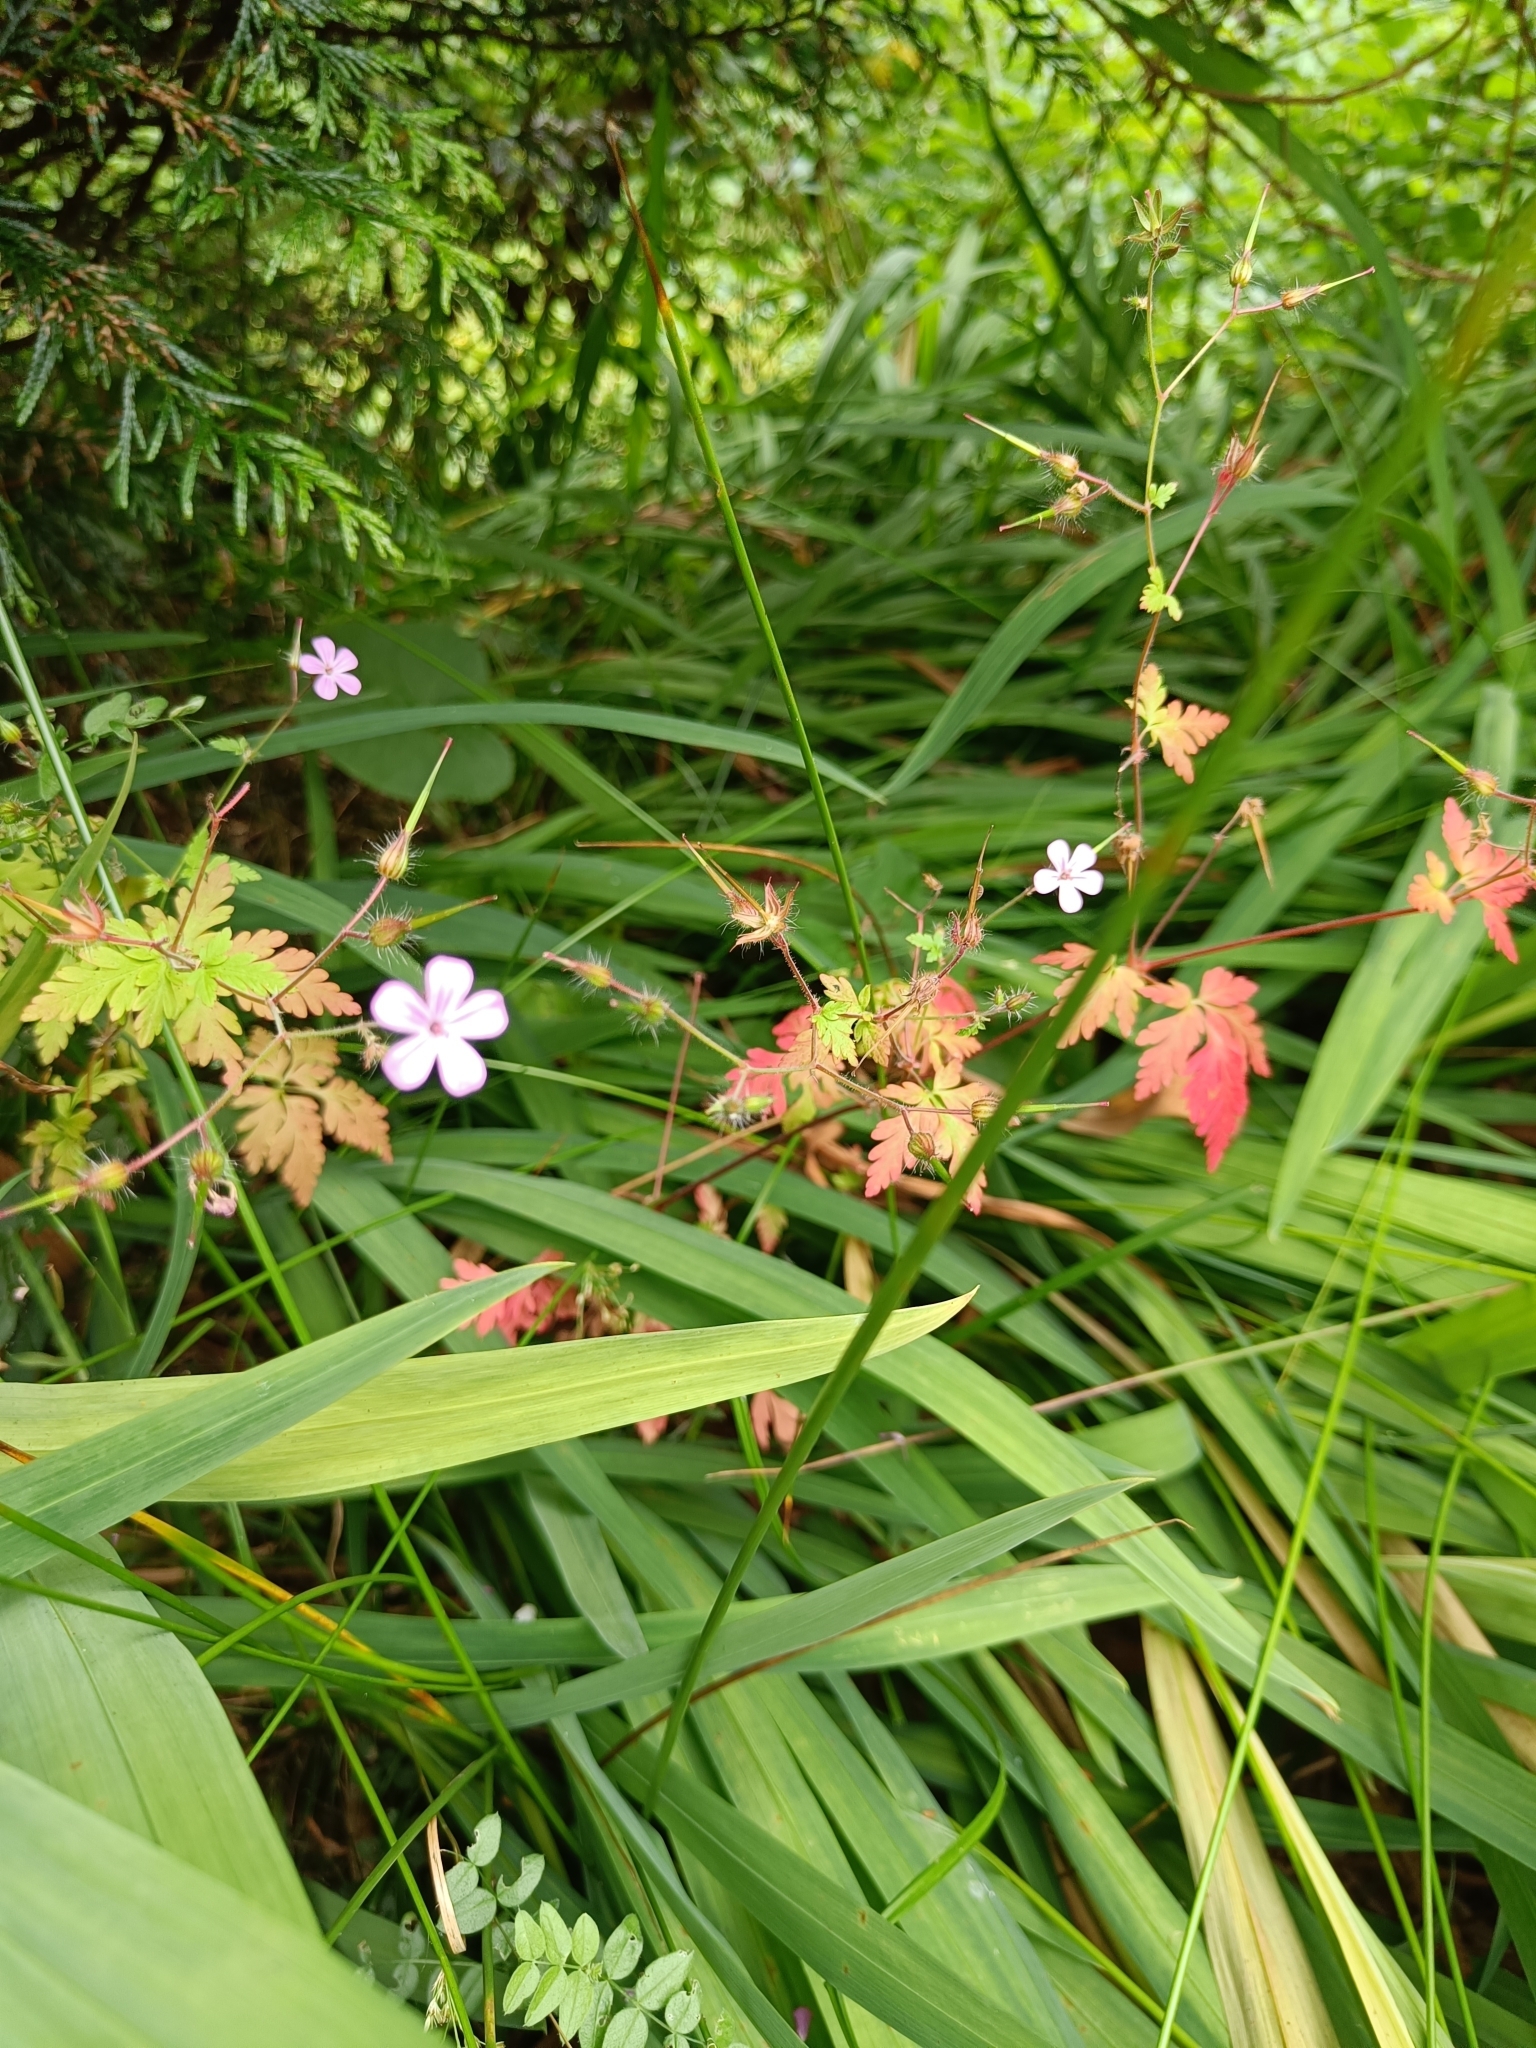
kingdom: Plantae
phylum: Tracheophyta
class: Magnoliopsida
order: Geraniales
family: Geraniaceae
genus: Geranium
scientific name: Geranium robertianum
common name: Herb-robert
